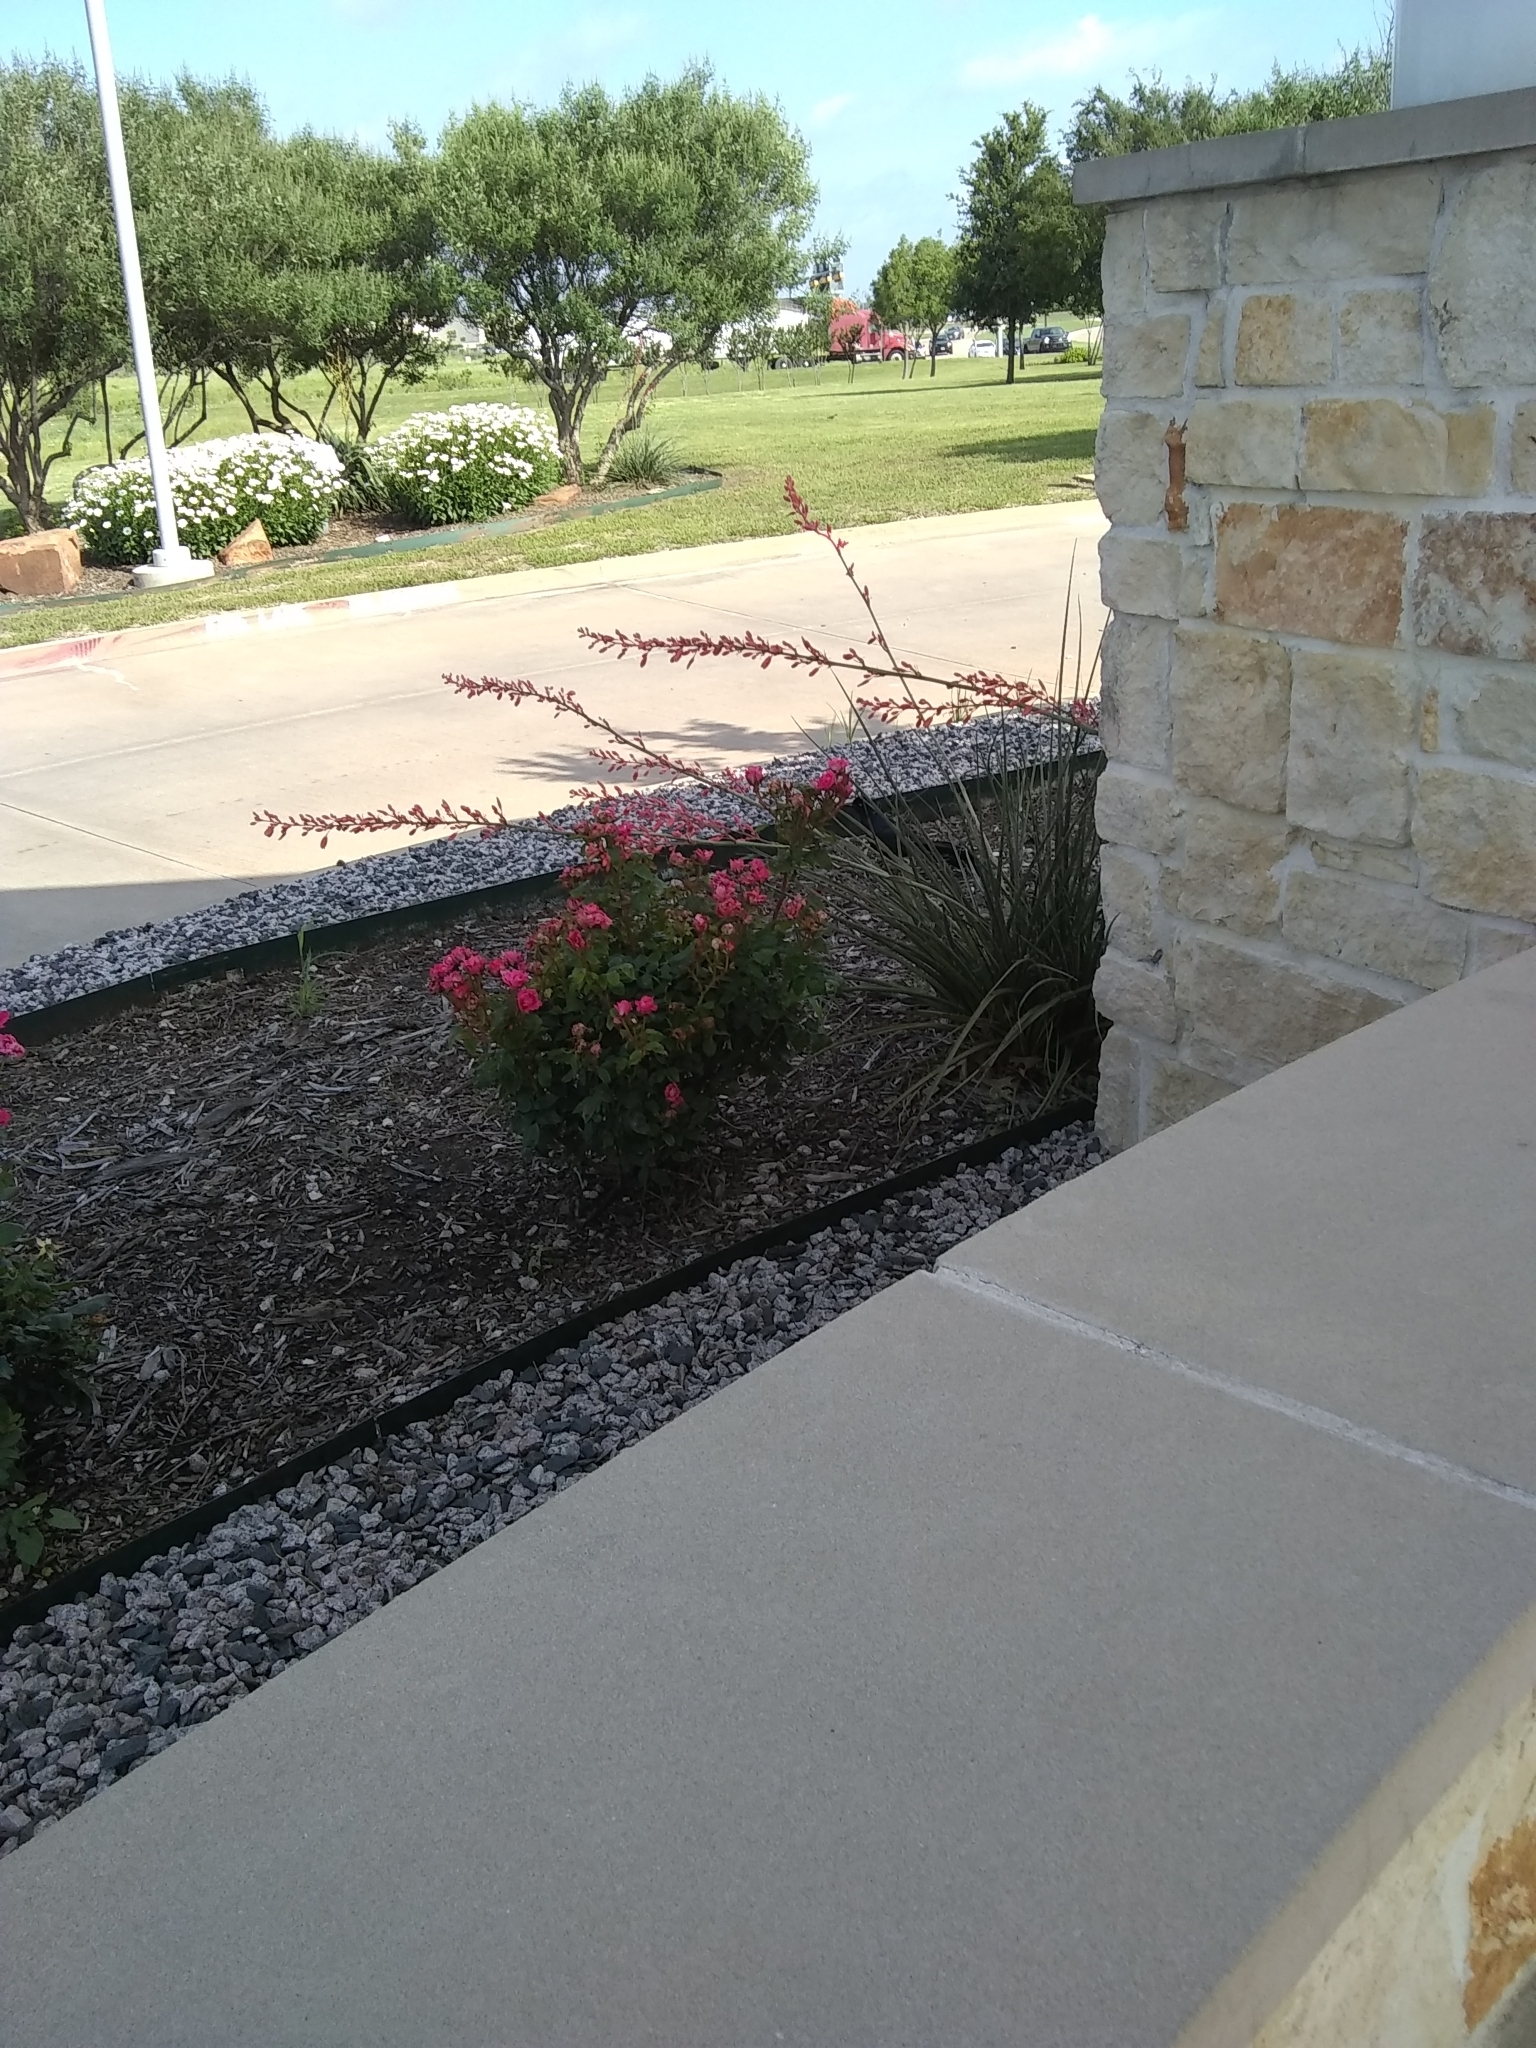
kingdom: Animalia
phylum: Chordata
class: Aves
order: Passeriformes
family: Icteridae
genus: Quiscalus
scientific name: Quiscalus mexicanus
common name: Great-tailed grackle
